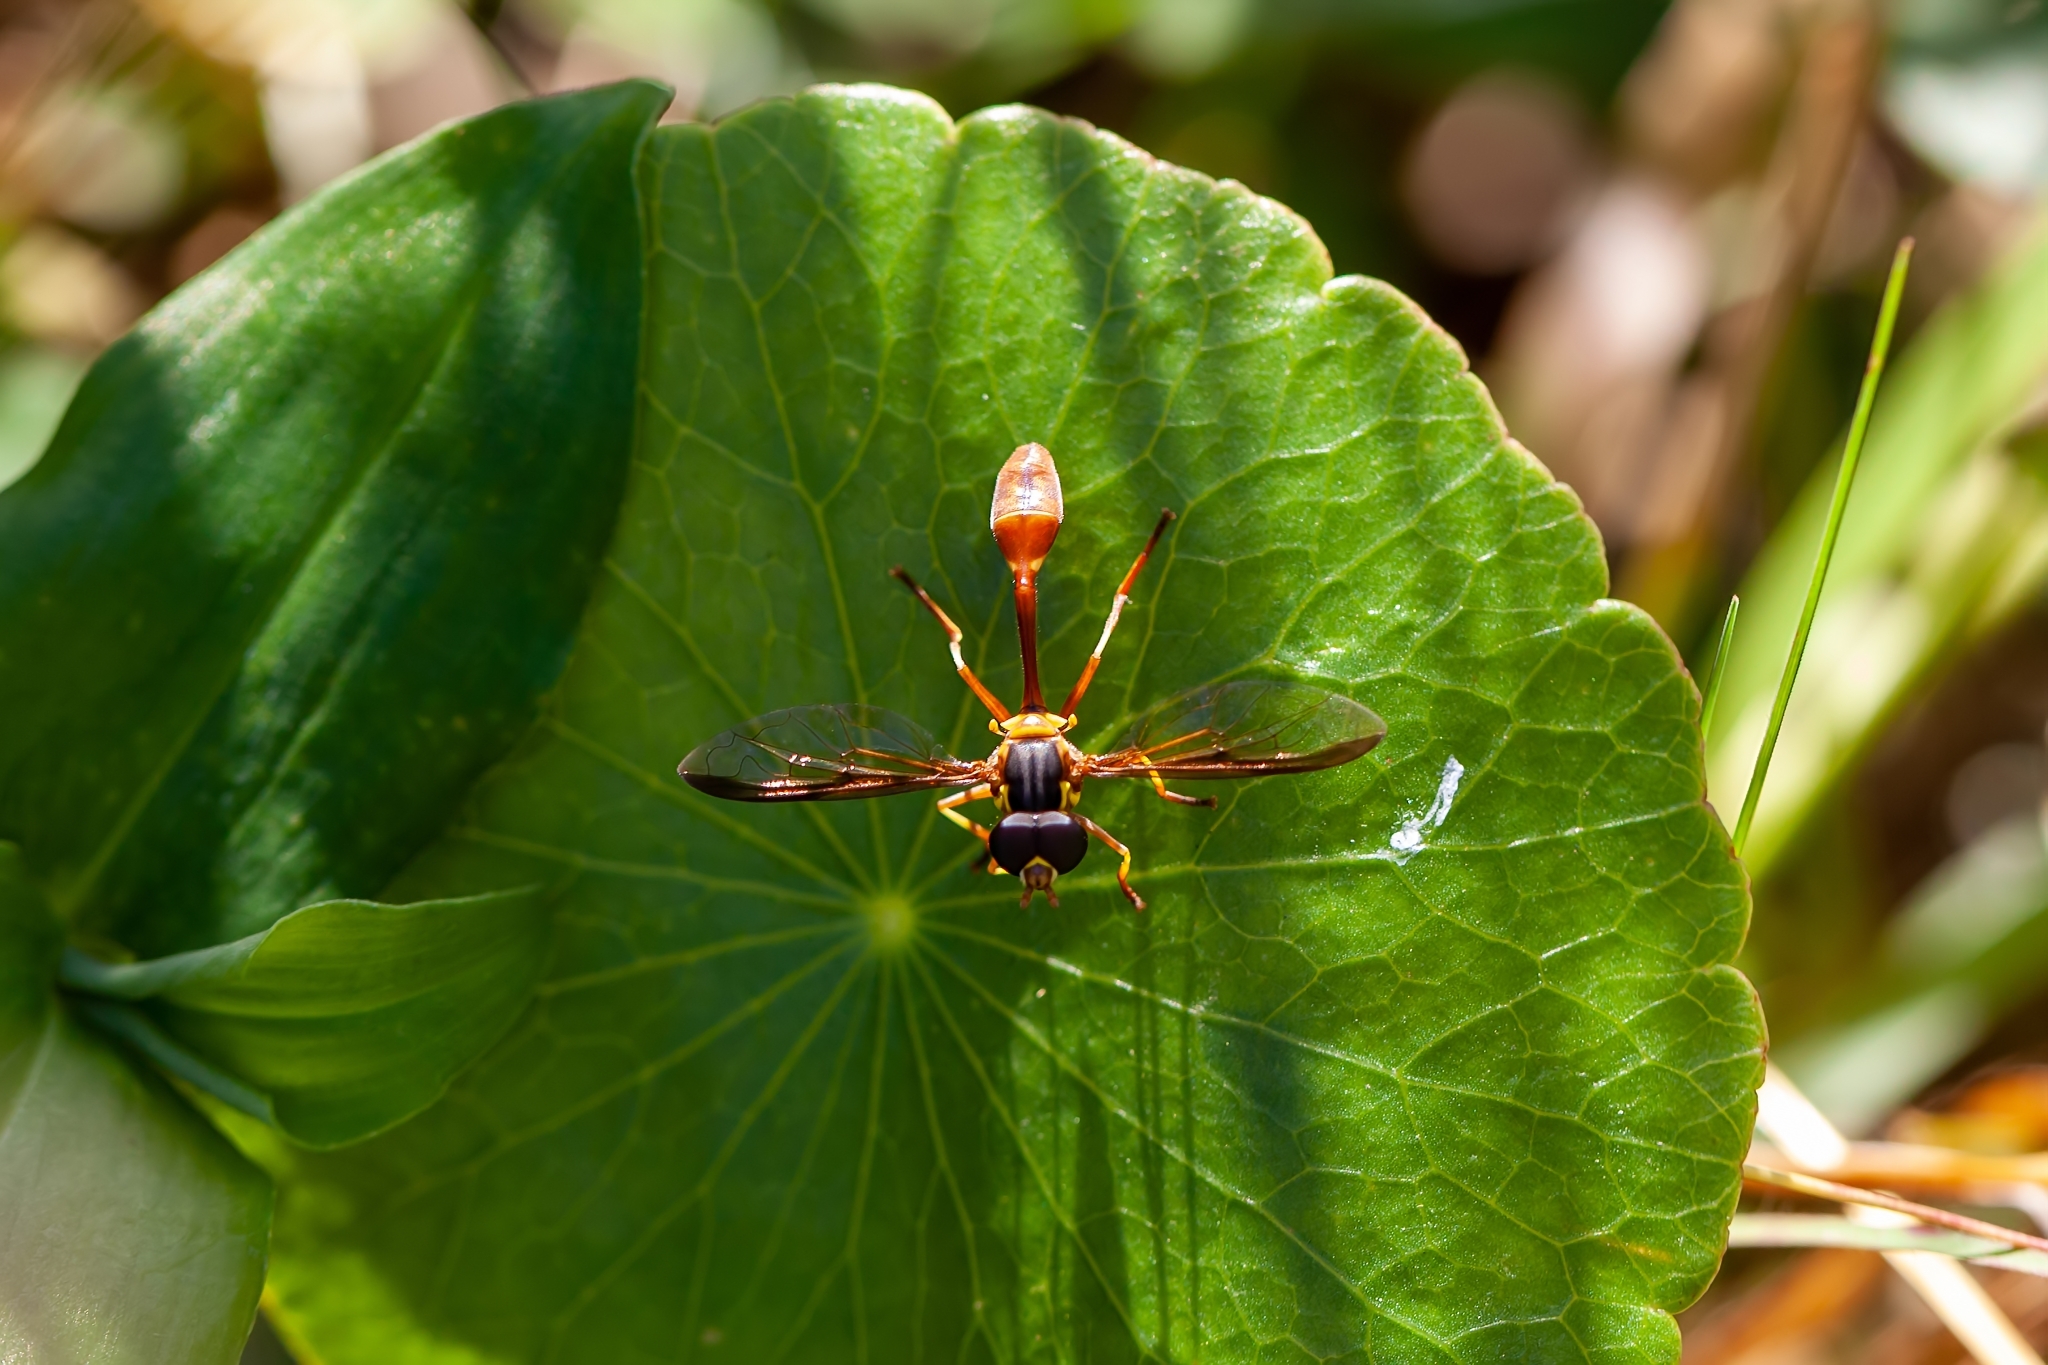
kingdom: Animalia
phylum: Arthropoda
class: Insecta
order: Diptera
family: Syrphidae
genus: Salpingogaster
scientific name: Salpingogaster punctifrons
